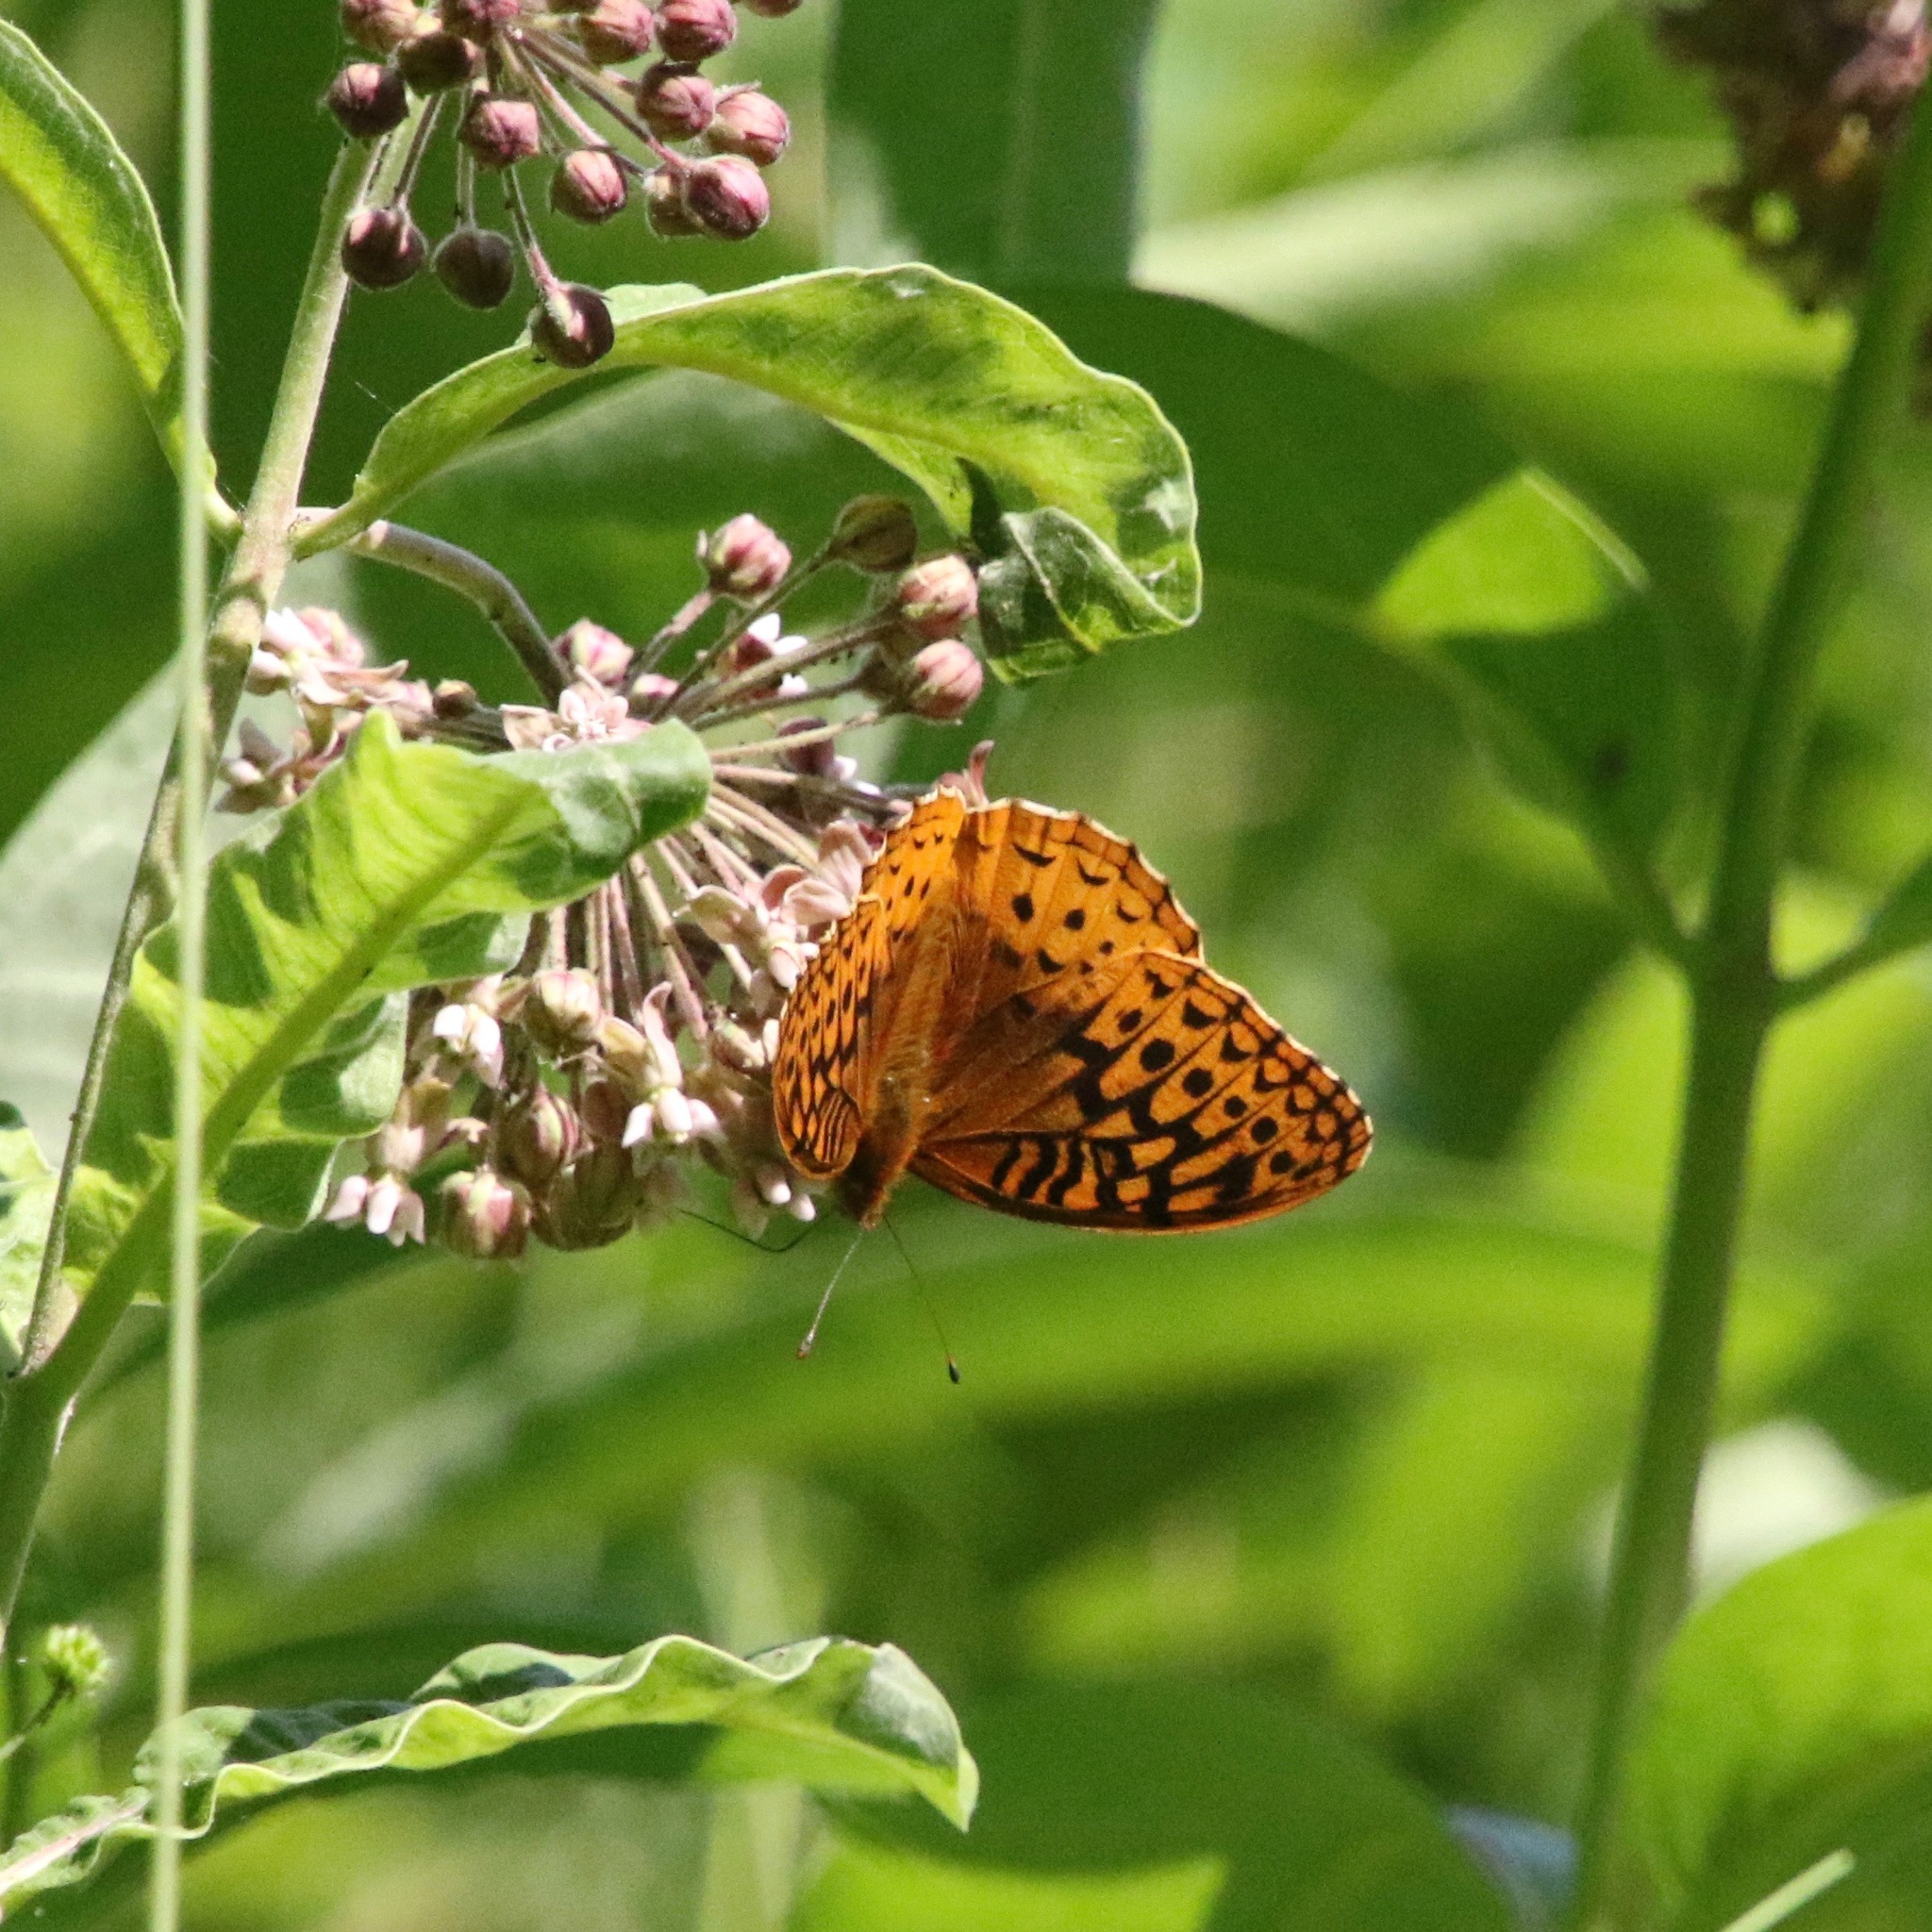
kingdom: Animalia
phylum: Arthropoda
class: Insecta
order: Lepidoptera
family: Nymphalidae
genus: Speyeria
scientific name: Speyeria cybele
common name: Great spangled fritillary
